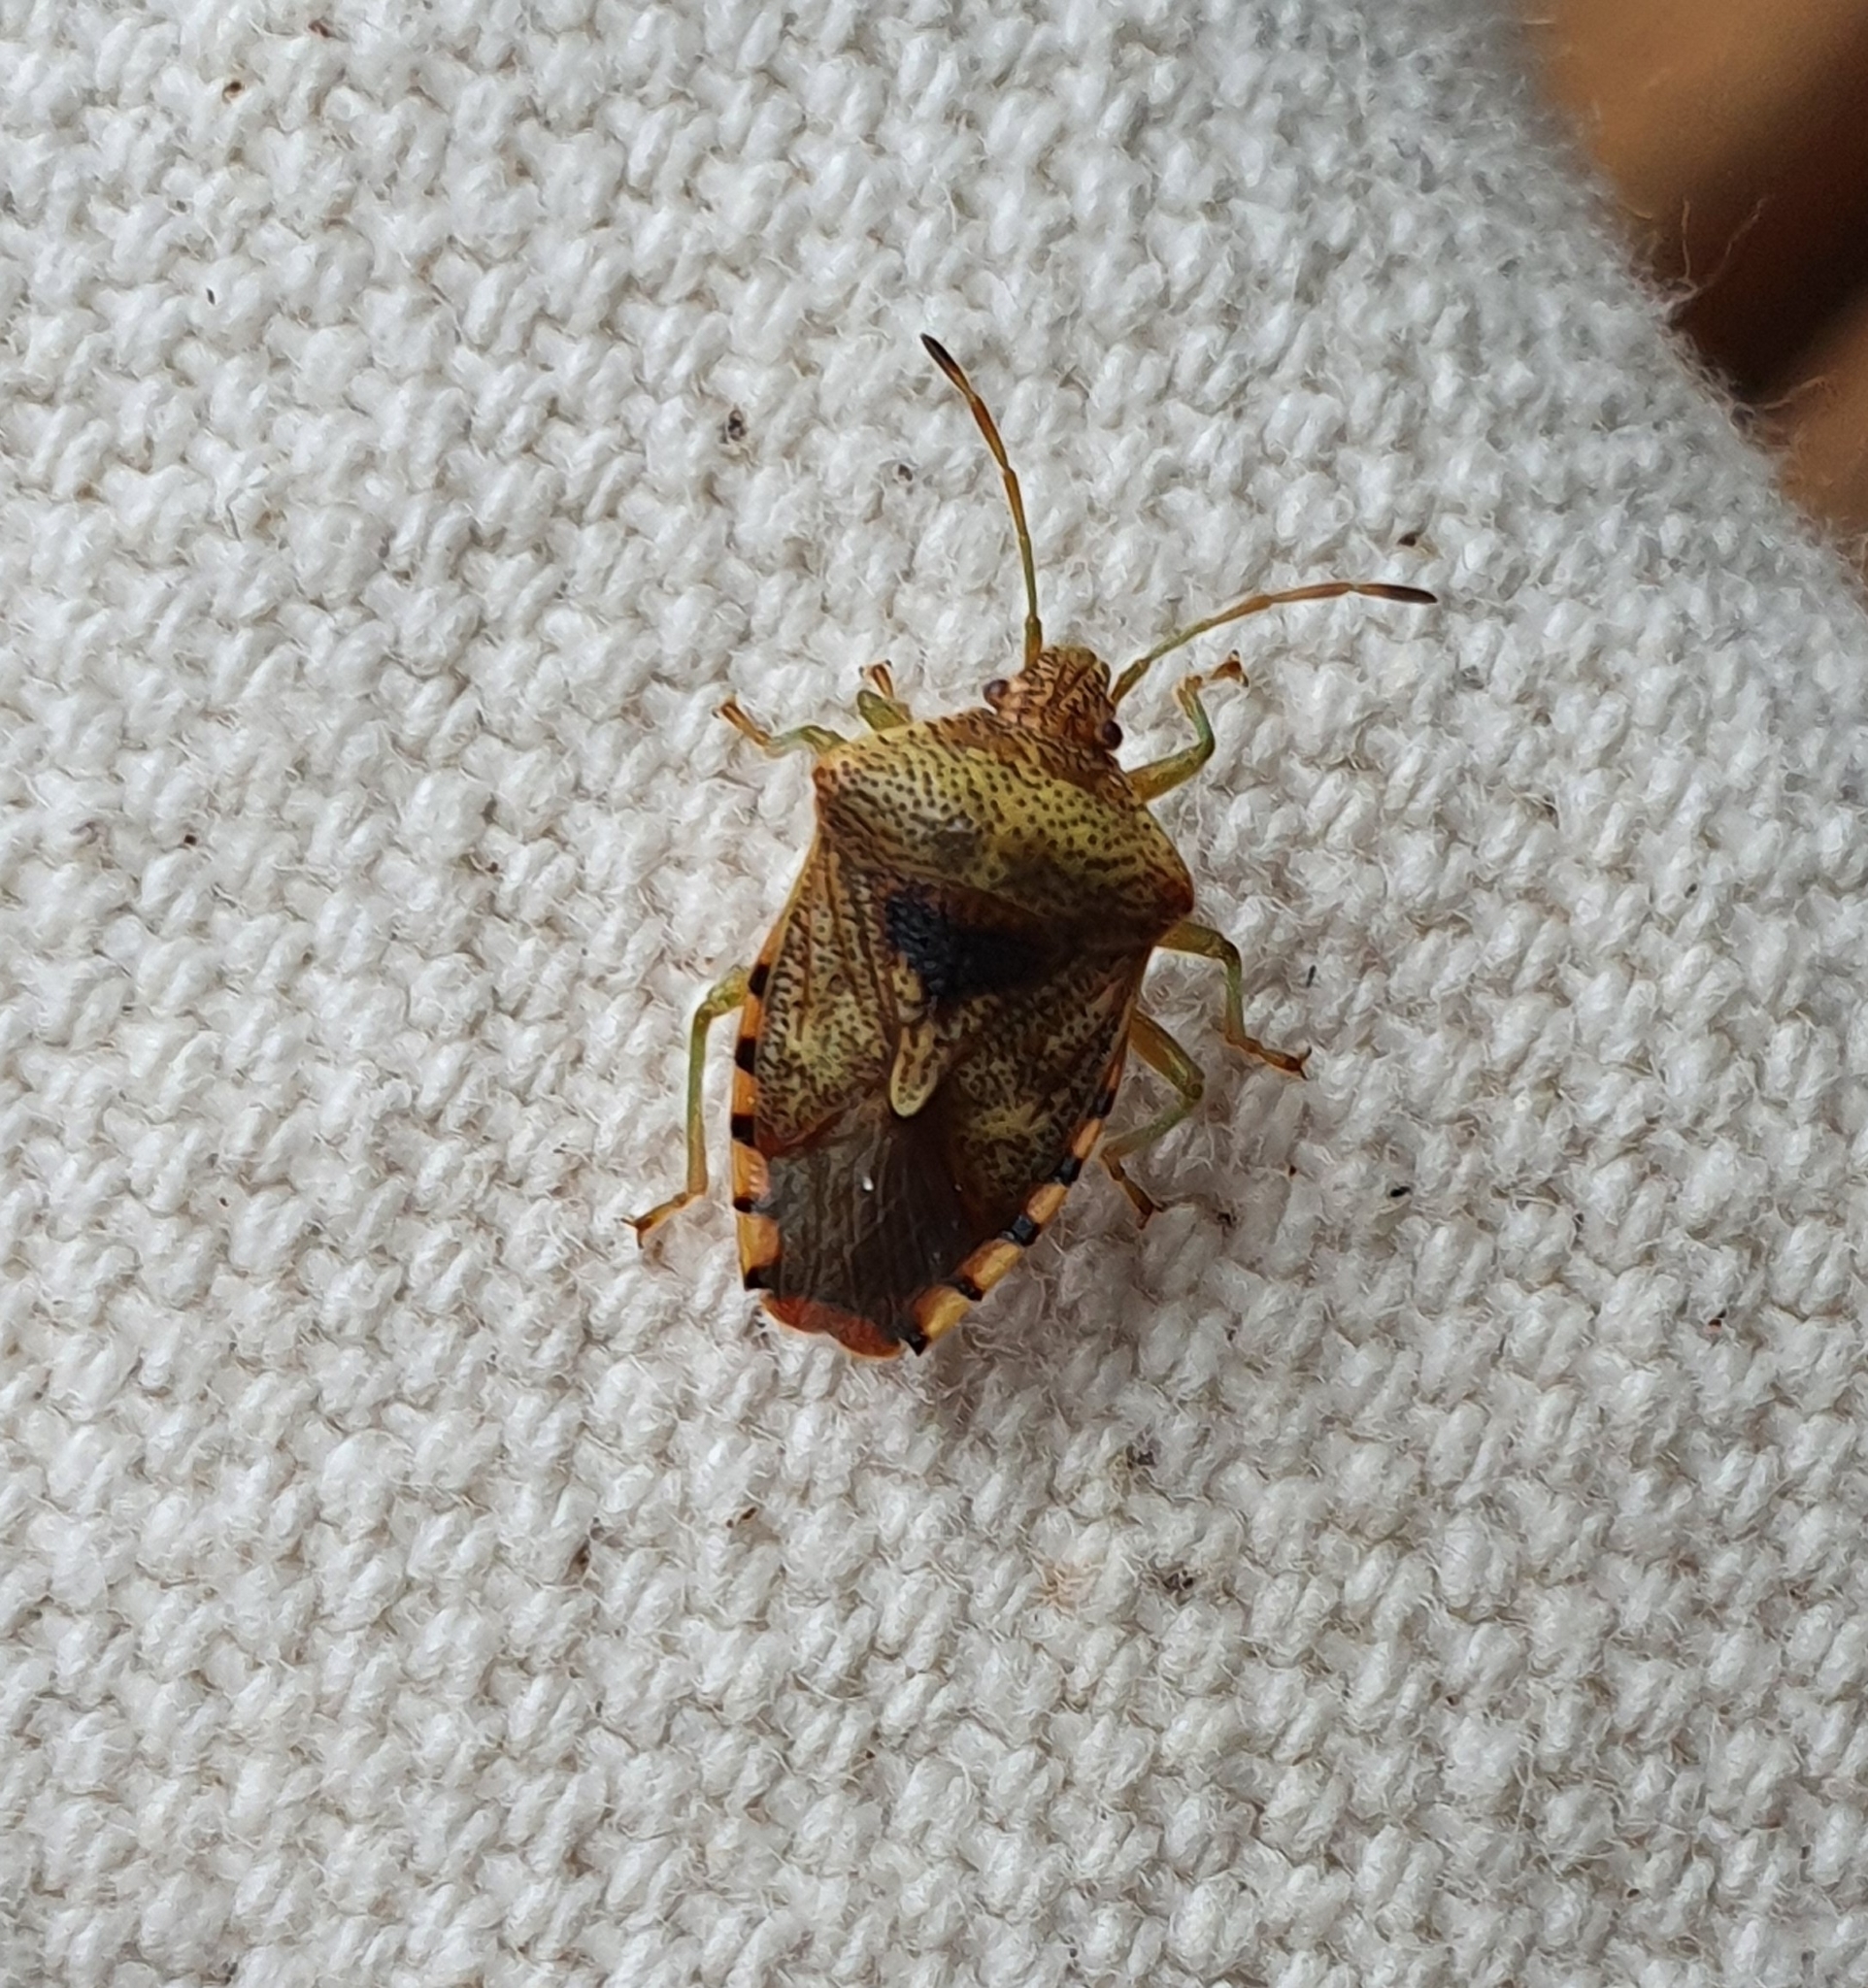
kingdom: Animalia
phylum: Arthropoda
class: Insecta
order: Hemiptera
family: Acanthosomatidae
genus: Elasmucha
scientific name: Elasmucha grisea
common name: Parent bug
